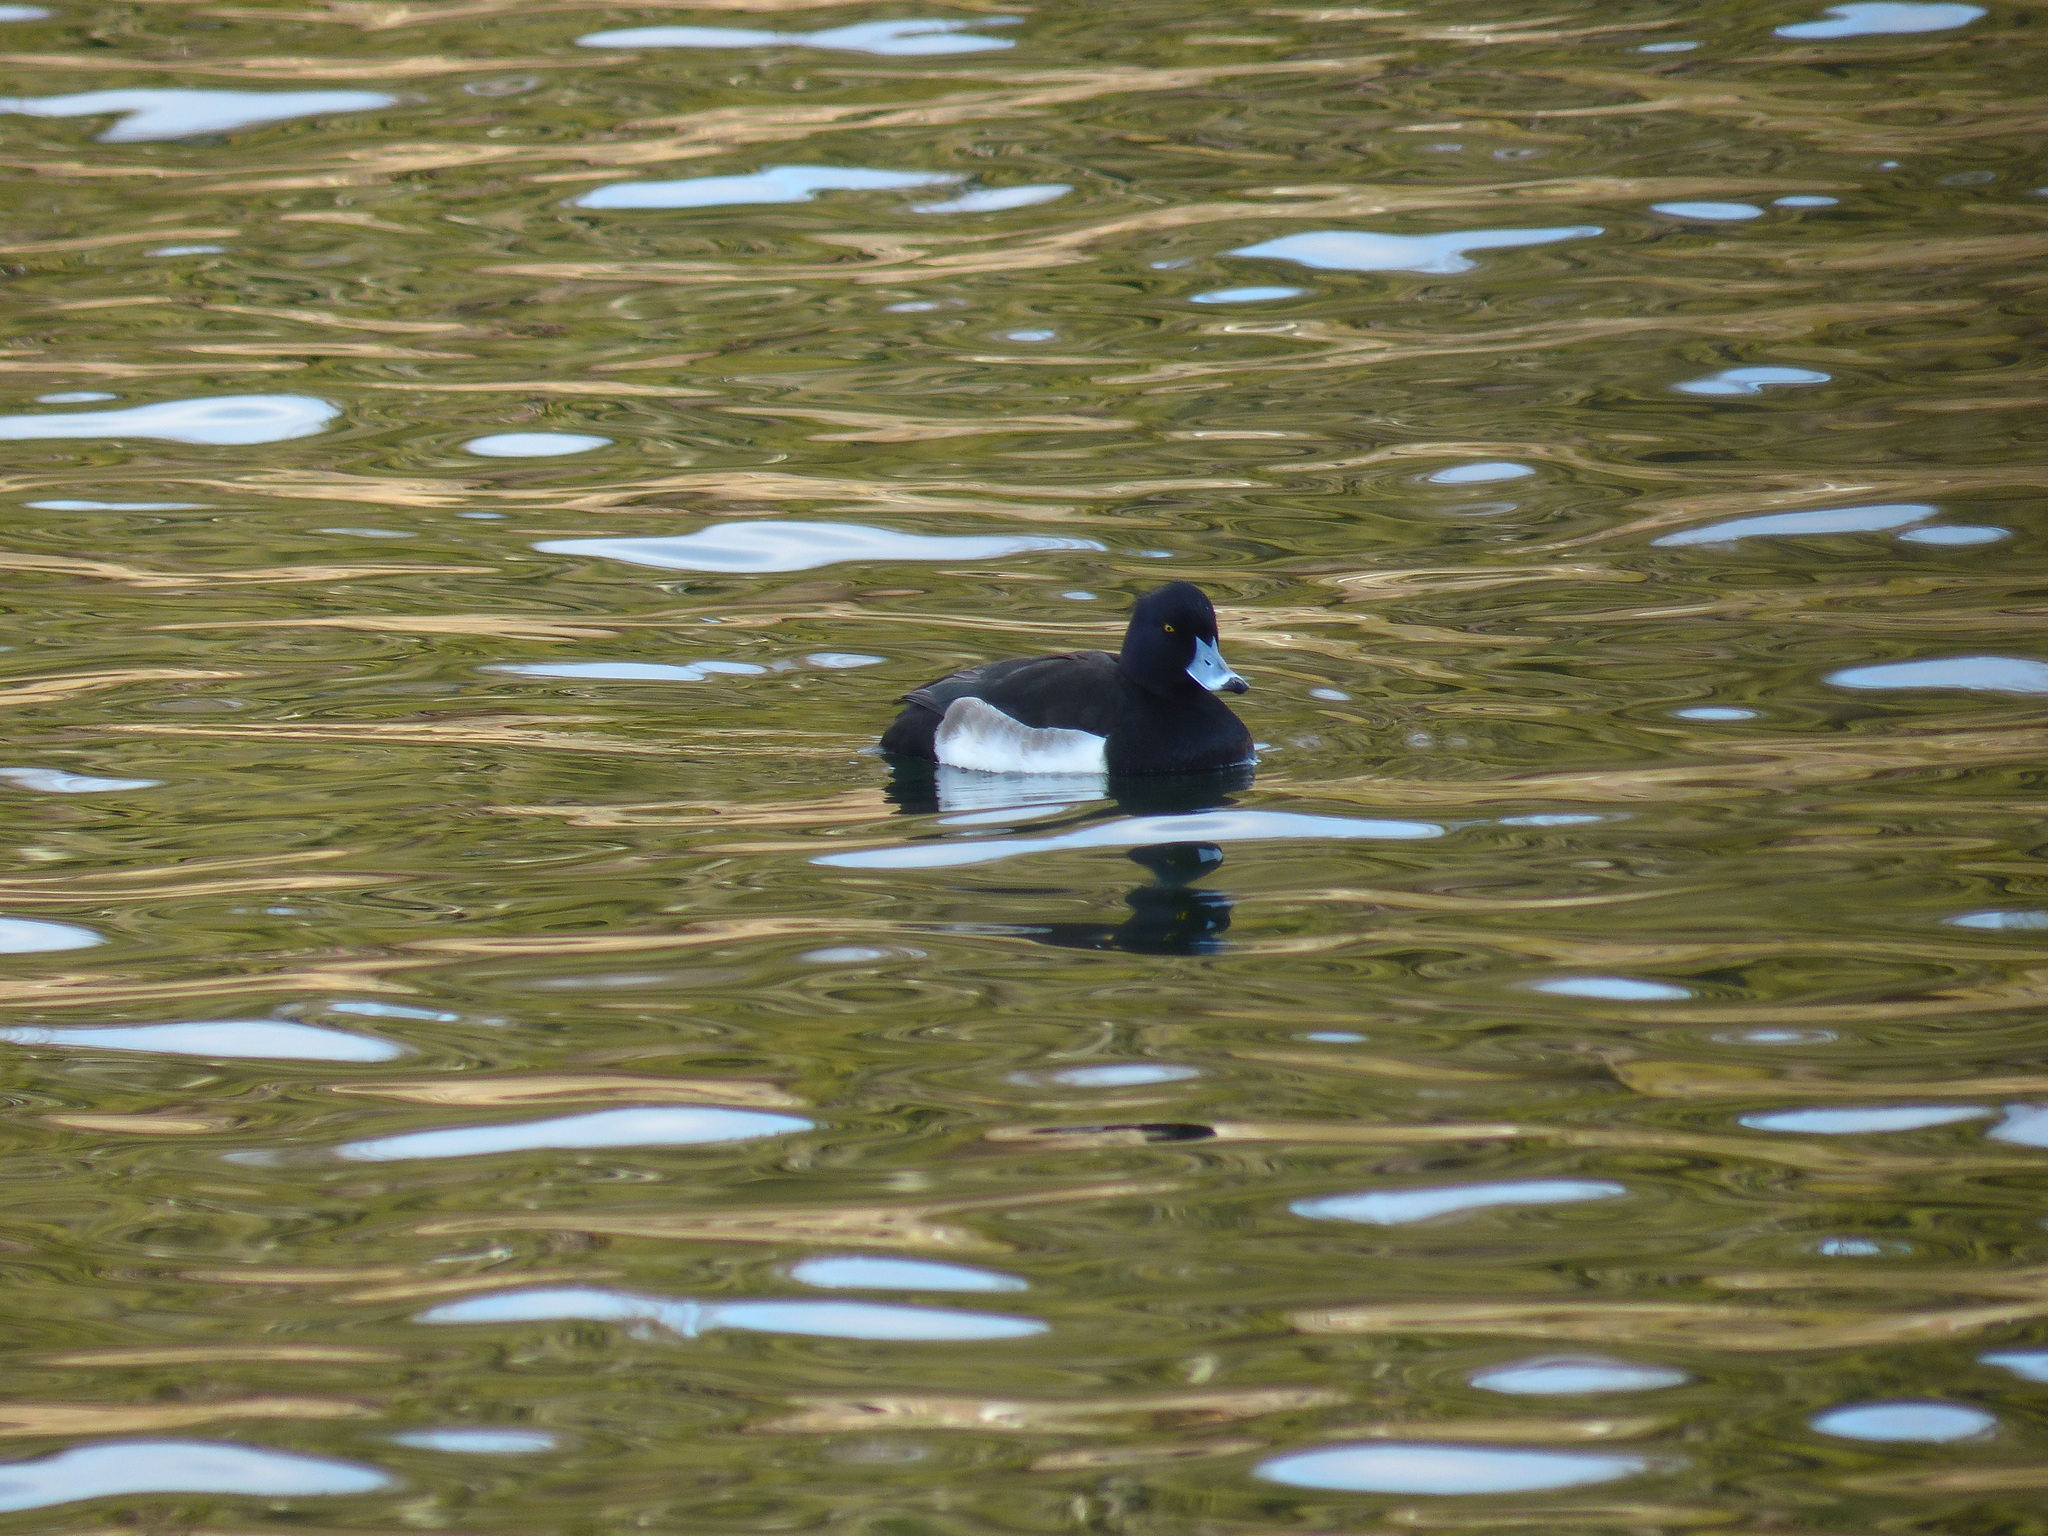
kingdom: Animalia
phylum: Chordata
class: Aves
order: Anseriformes
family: Anatidae
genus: Aythya
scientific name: Aythya fuligula
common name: Tufted duck
